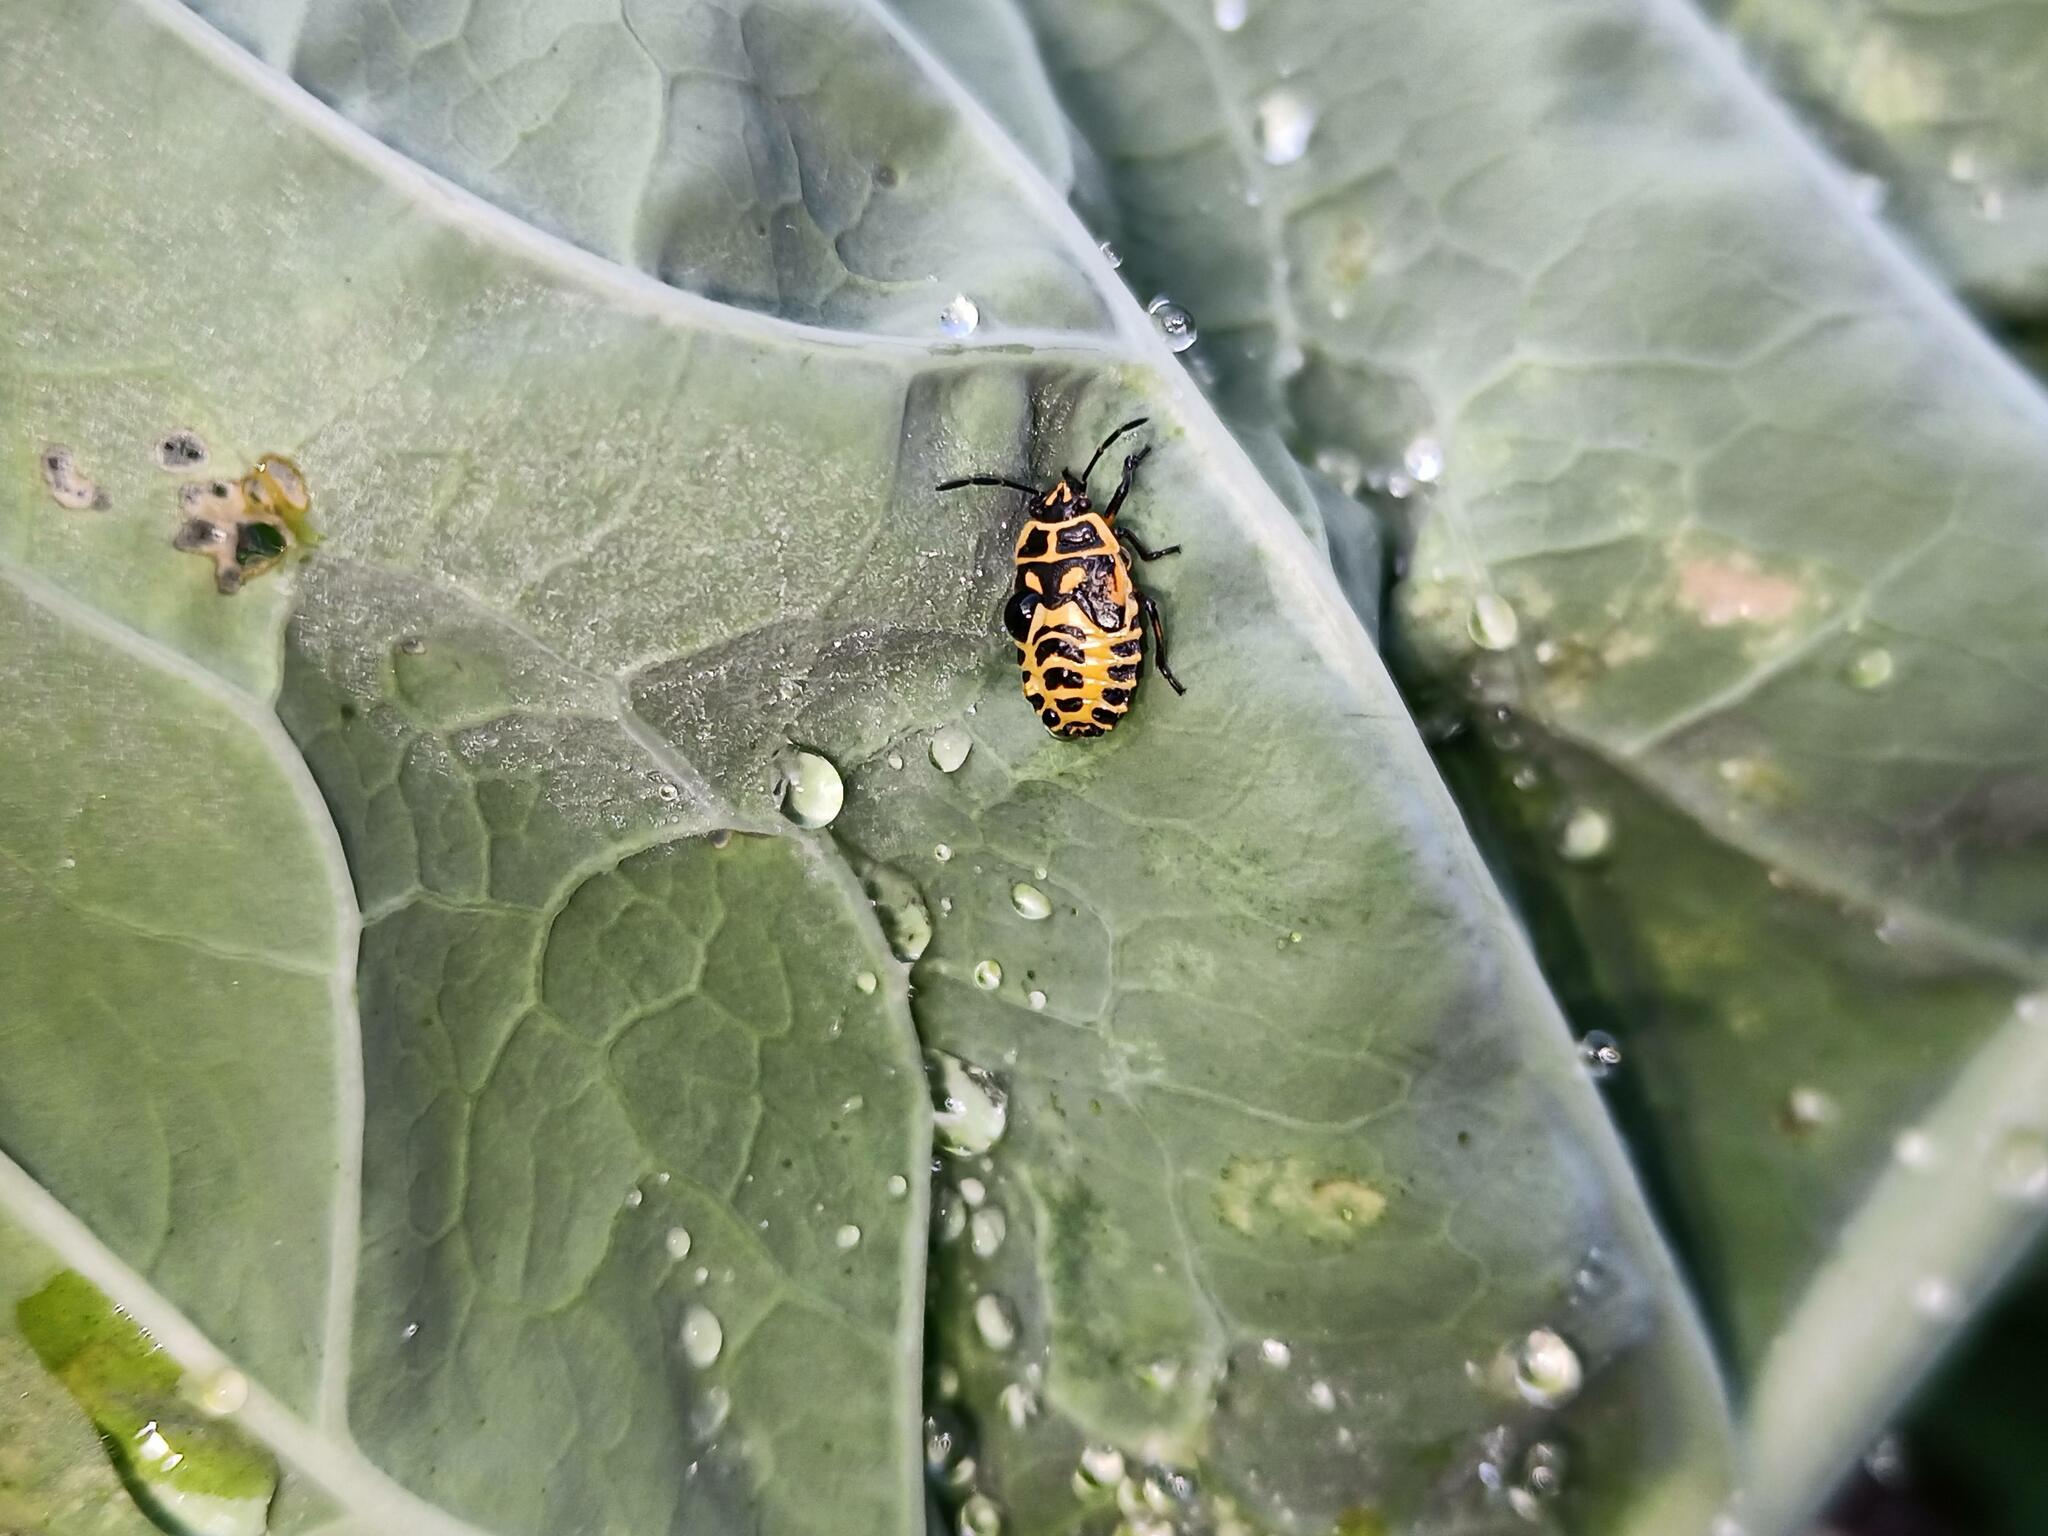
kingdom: Animalia
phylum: Arthropoda
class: Insecta
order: Hemiptera
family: Pentatomidae
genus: Eurydema
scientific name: Eurydema ventralis
